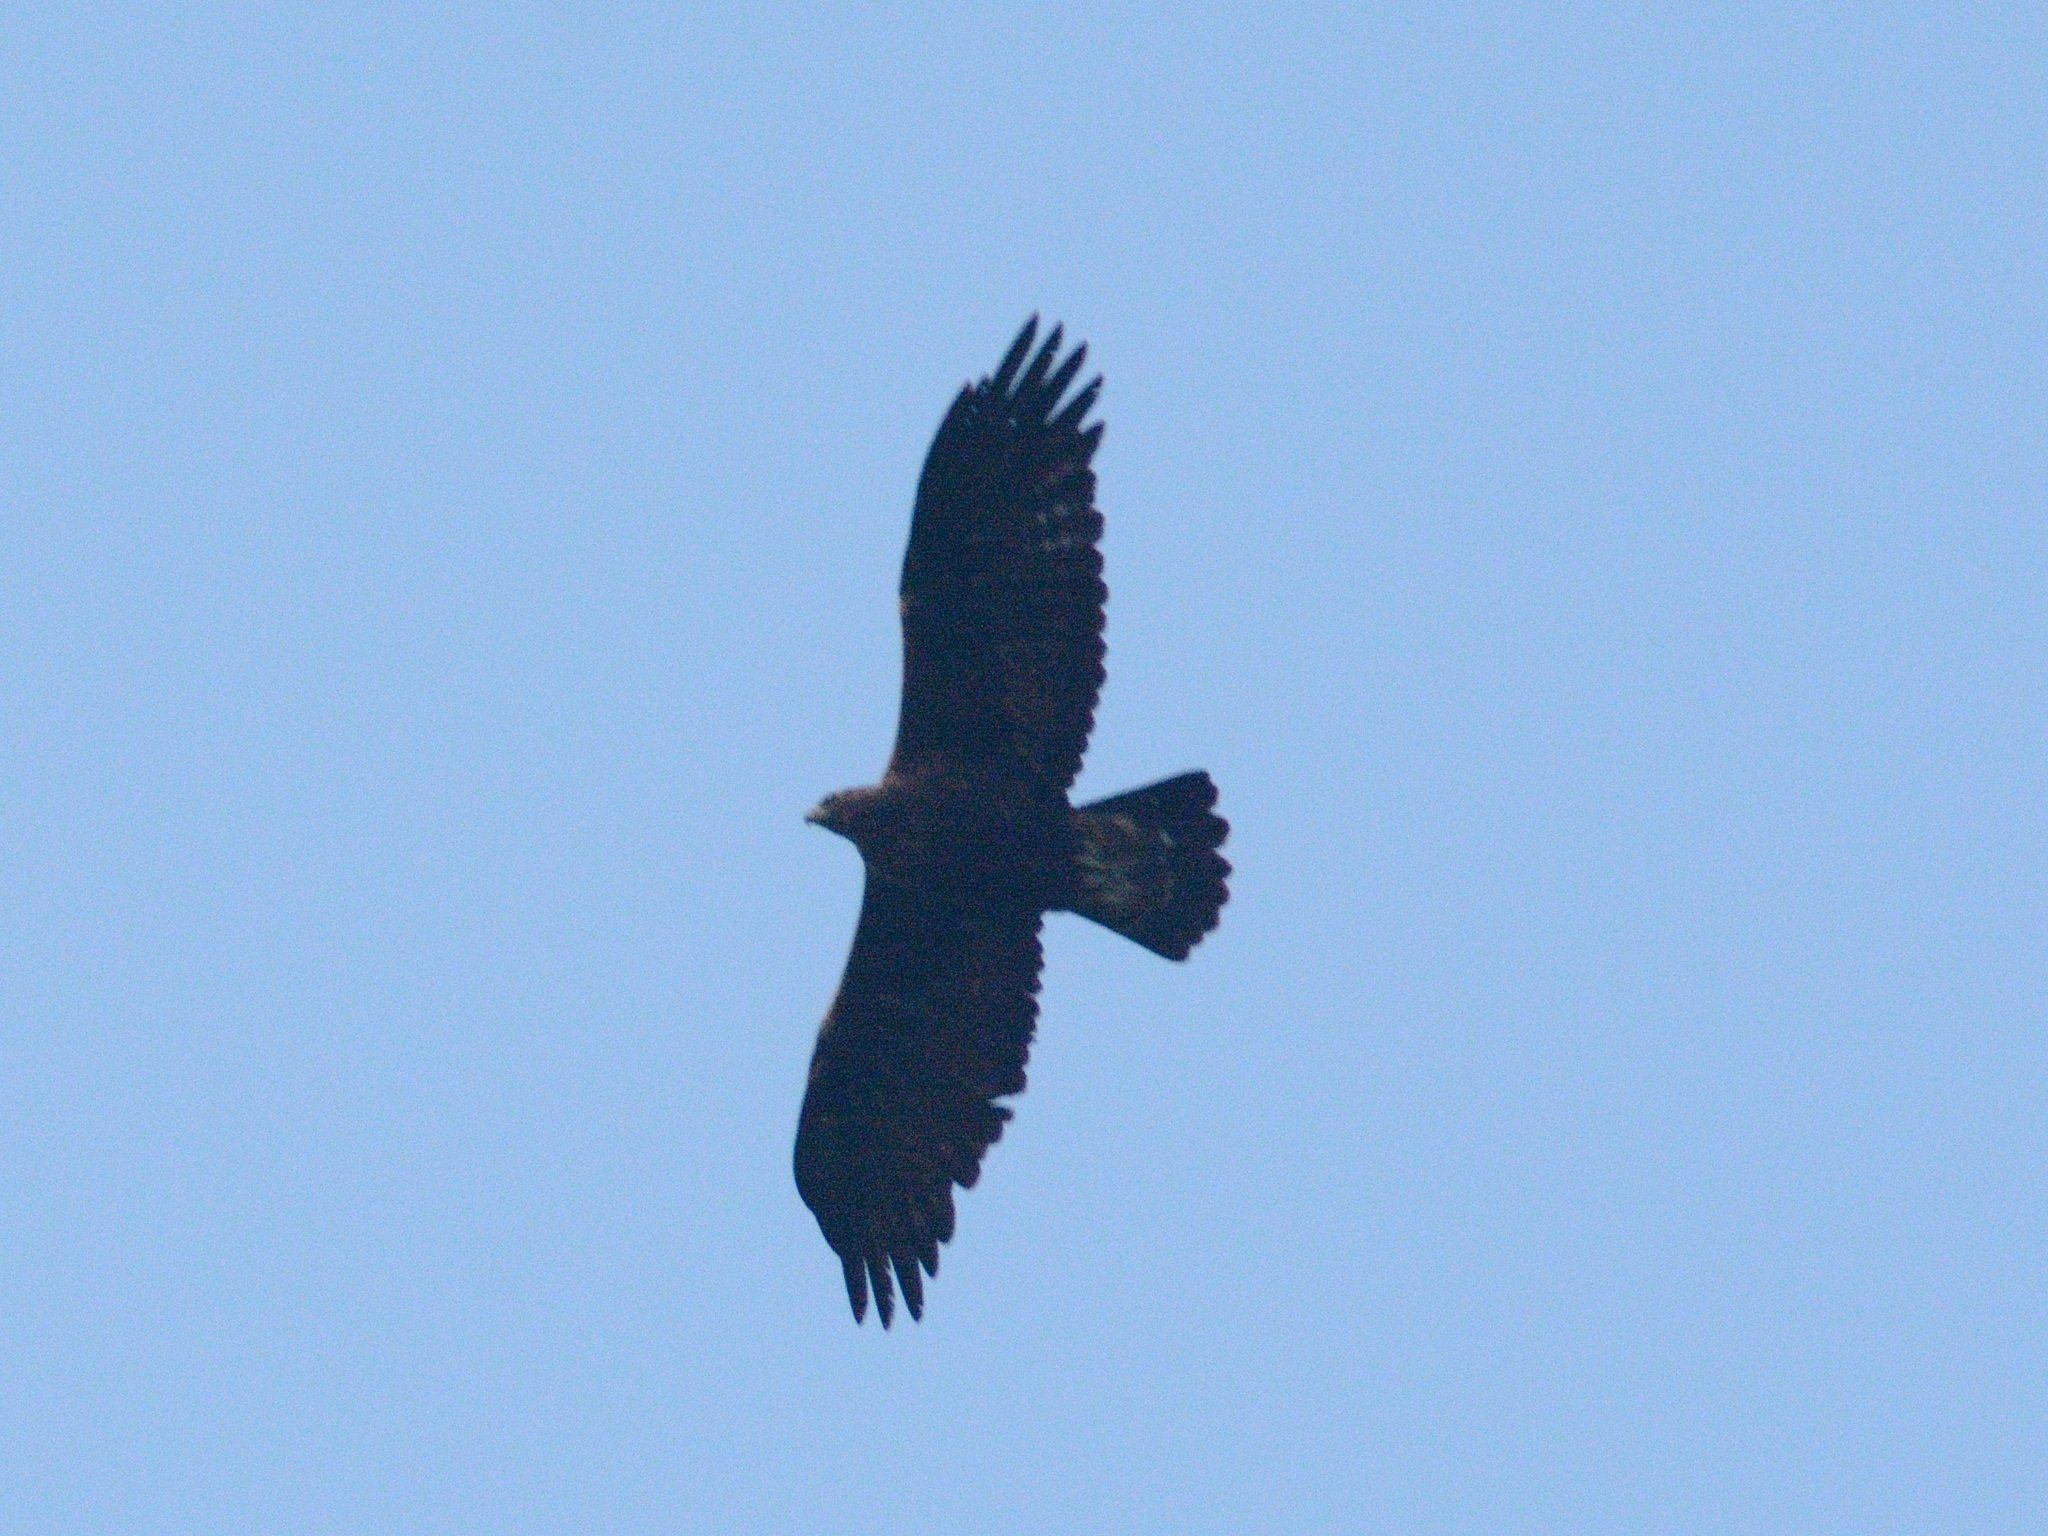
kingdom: Animalia
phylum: Chordata
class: Aves
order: Accipitriformes
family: Accipitridae
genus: Aquila
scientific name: Aquila chrysaetos
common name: Golden eagle
